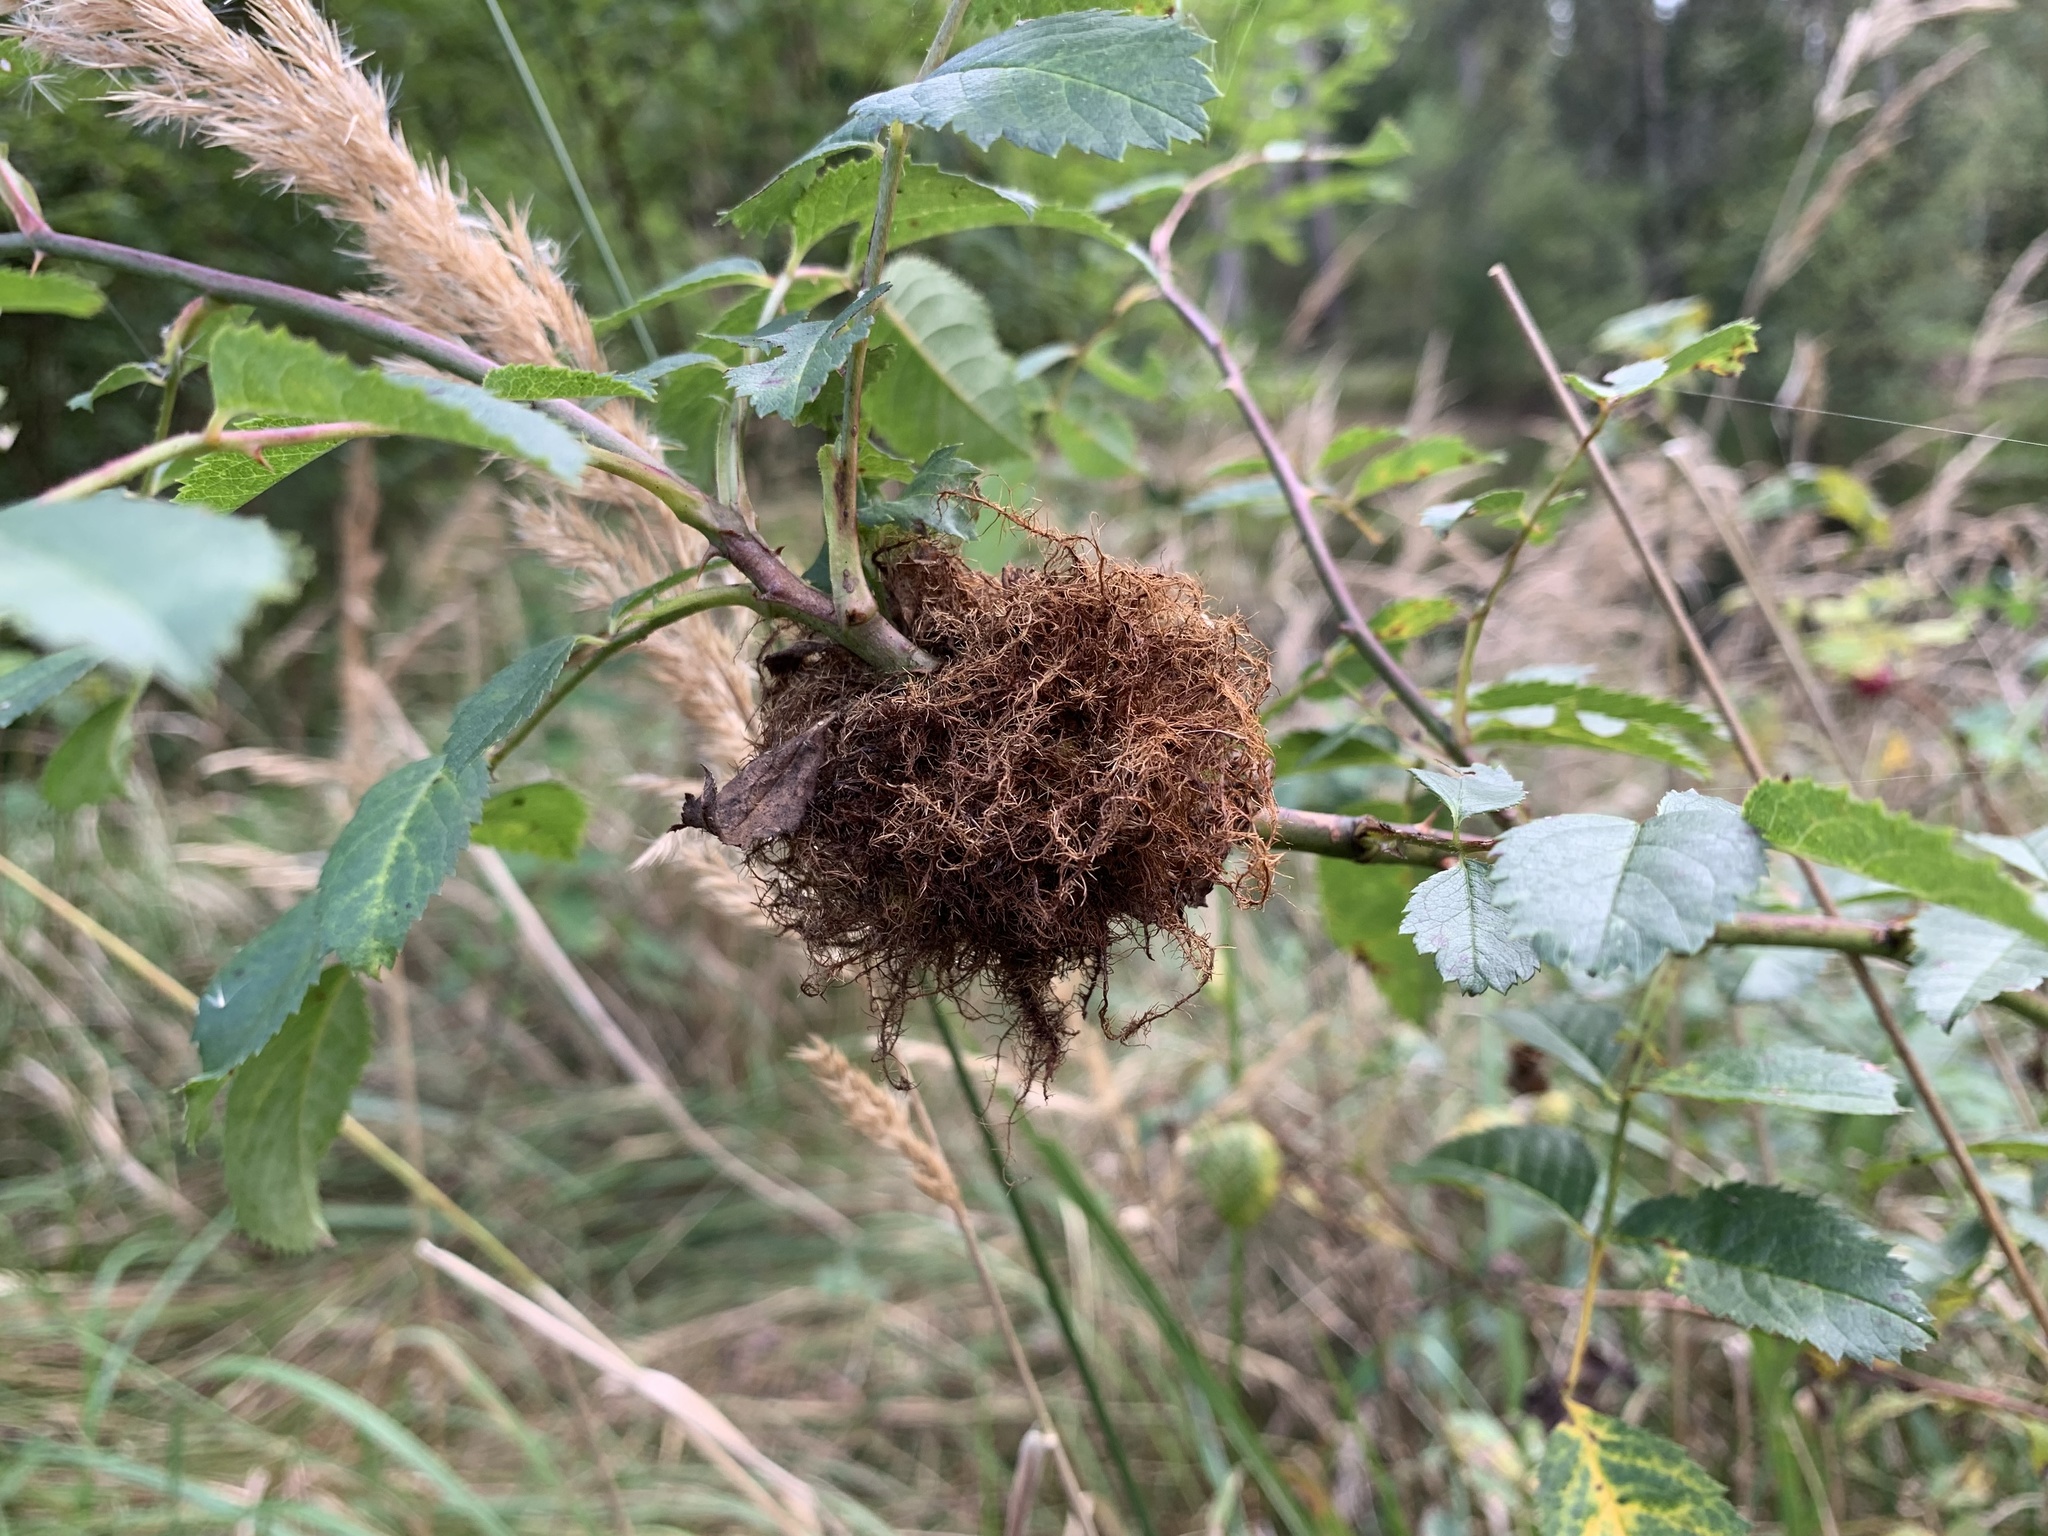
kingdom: Animalia
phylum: Arthropoda
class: Insecta
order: Hymenoptera
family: Cynipidae
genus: Diplolepis
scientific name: Diplolepis rosae
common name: Bedeguar gall
